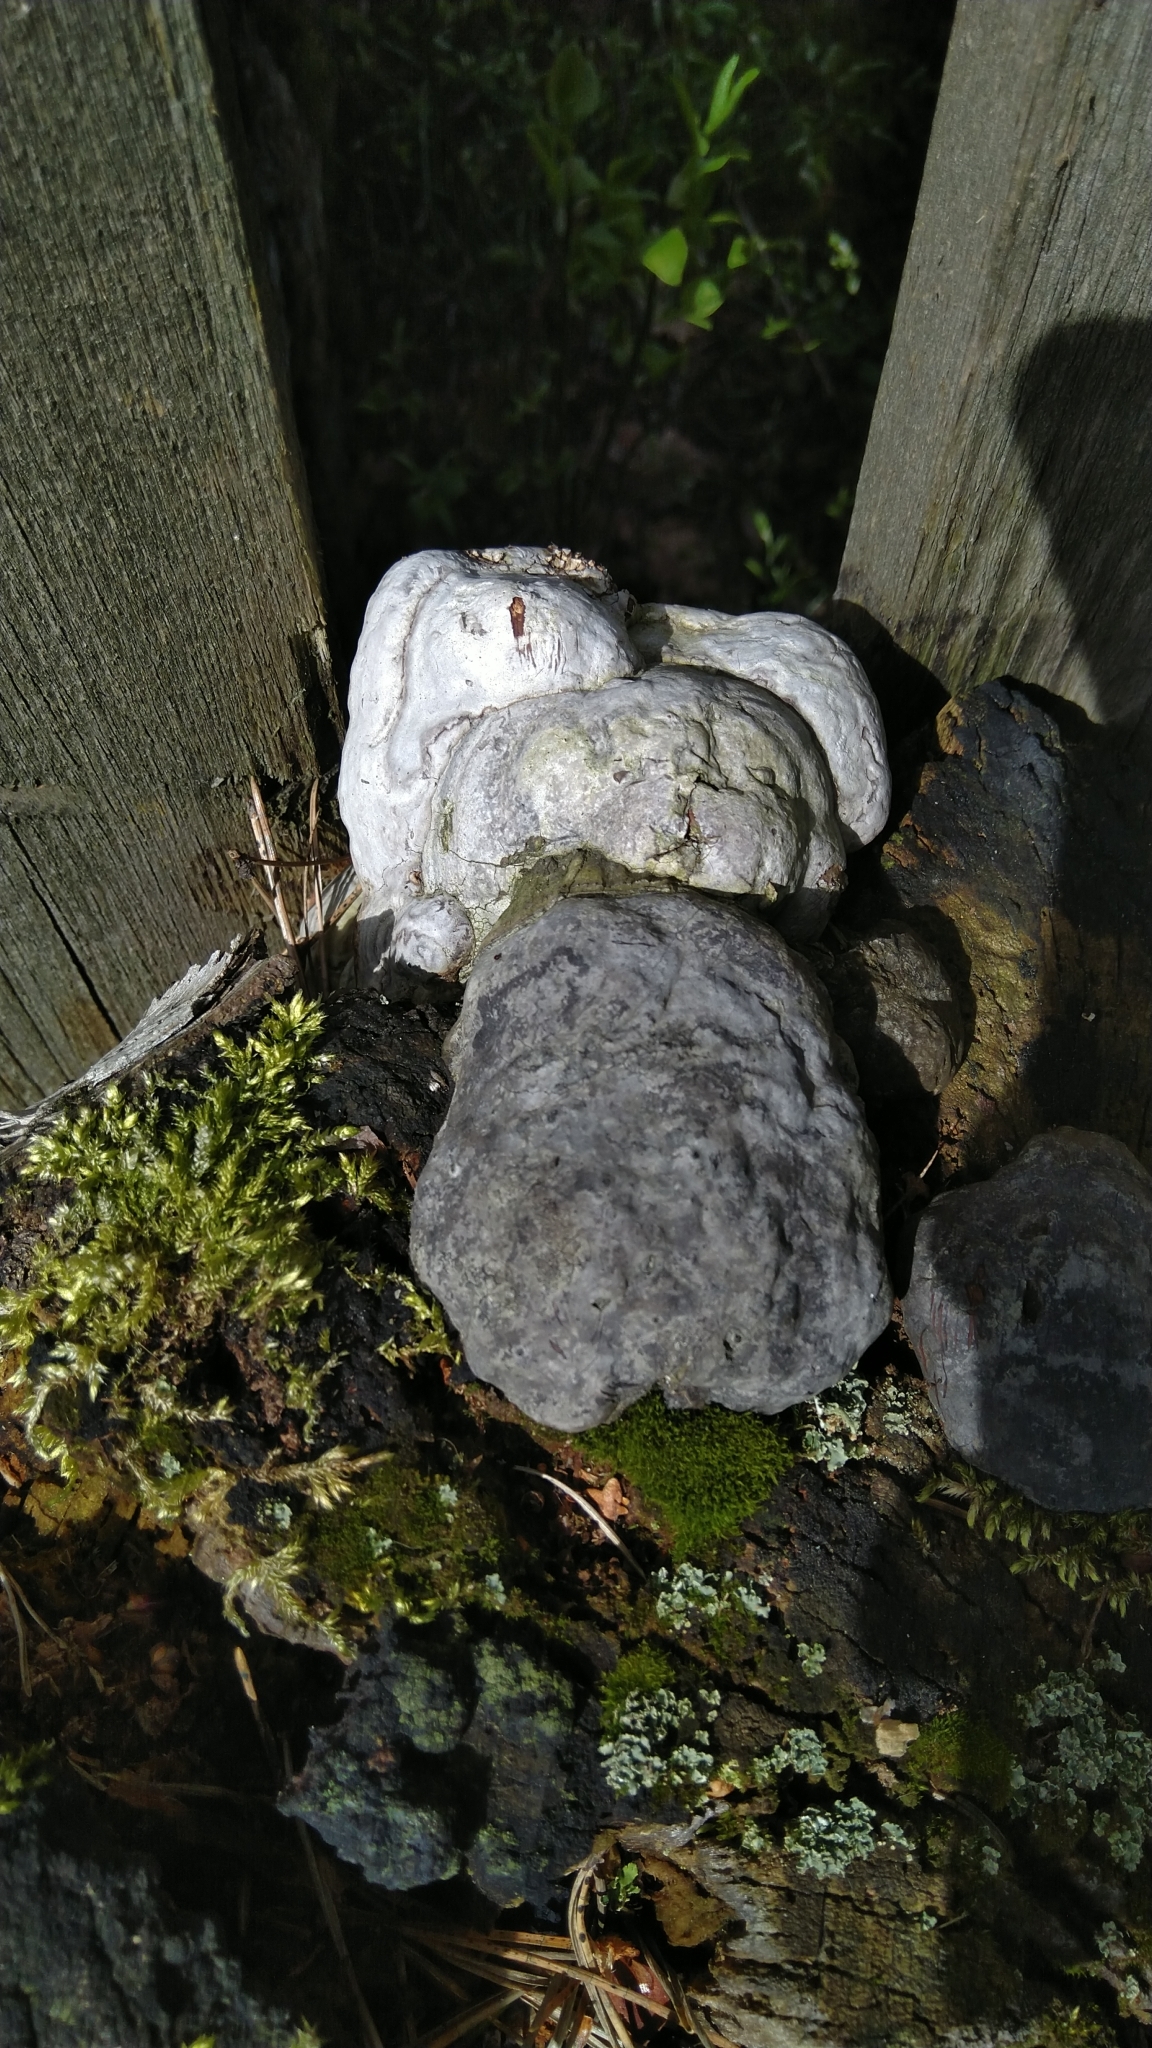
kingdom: Fungi
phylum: Basidiomycota
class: Agaricomycetes
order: Polyporales
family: Polyporaceae
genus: Fomes
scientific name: Fomes fomentarius
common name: Hoof fungus
